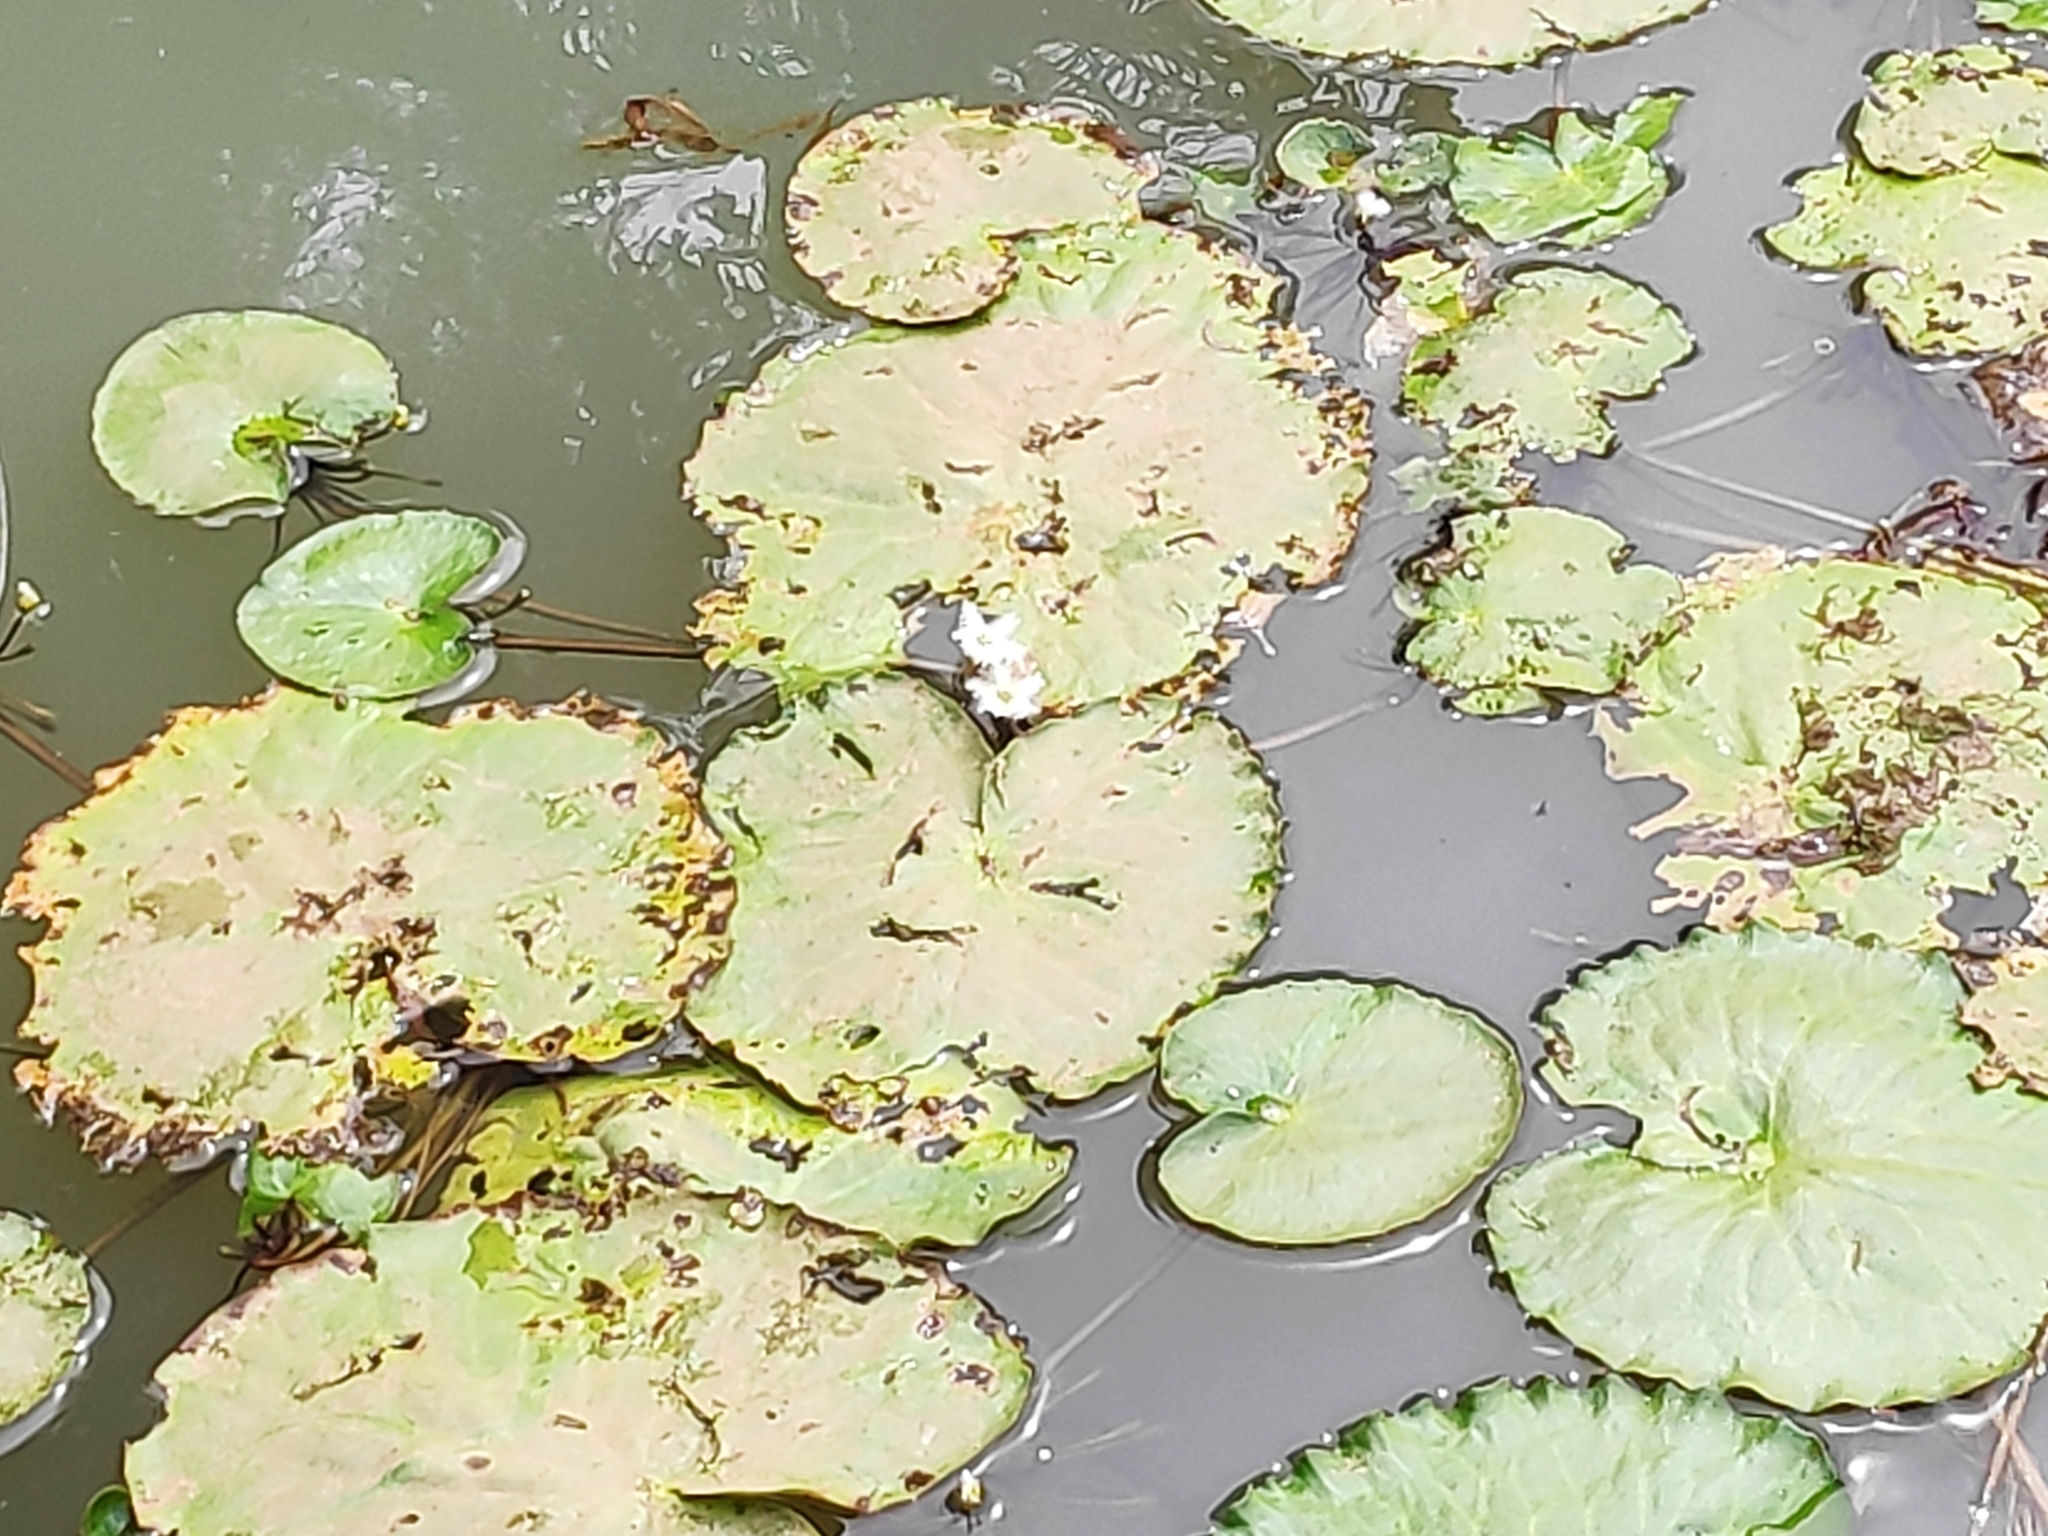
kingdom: Plantae
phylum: Tracheophyta
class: Magnoliopsida
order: Asterales
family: Menyanthaceae
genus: Nymphoides
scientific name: Nymphoides senegalensis
